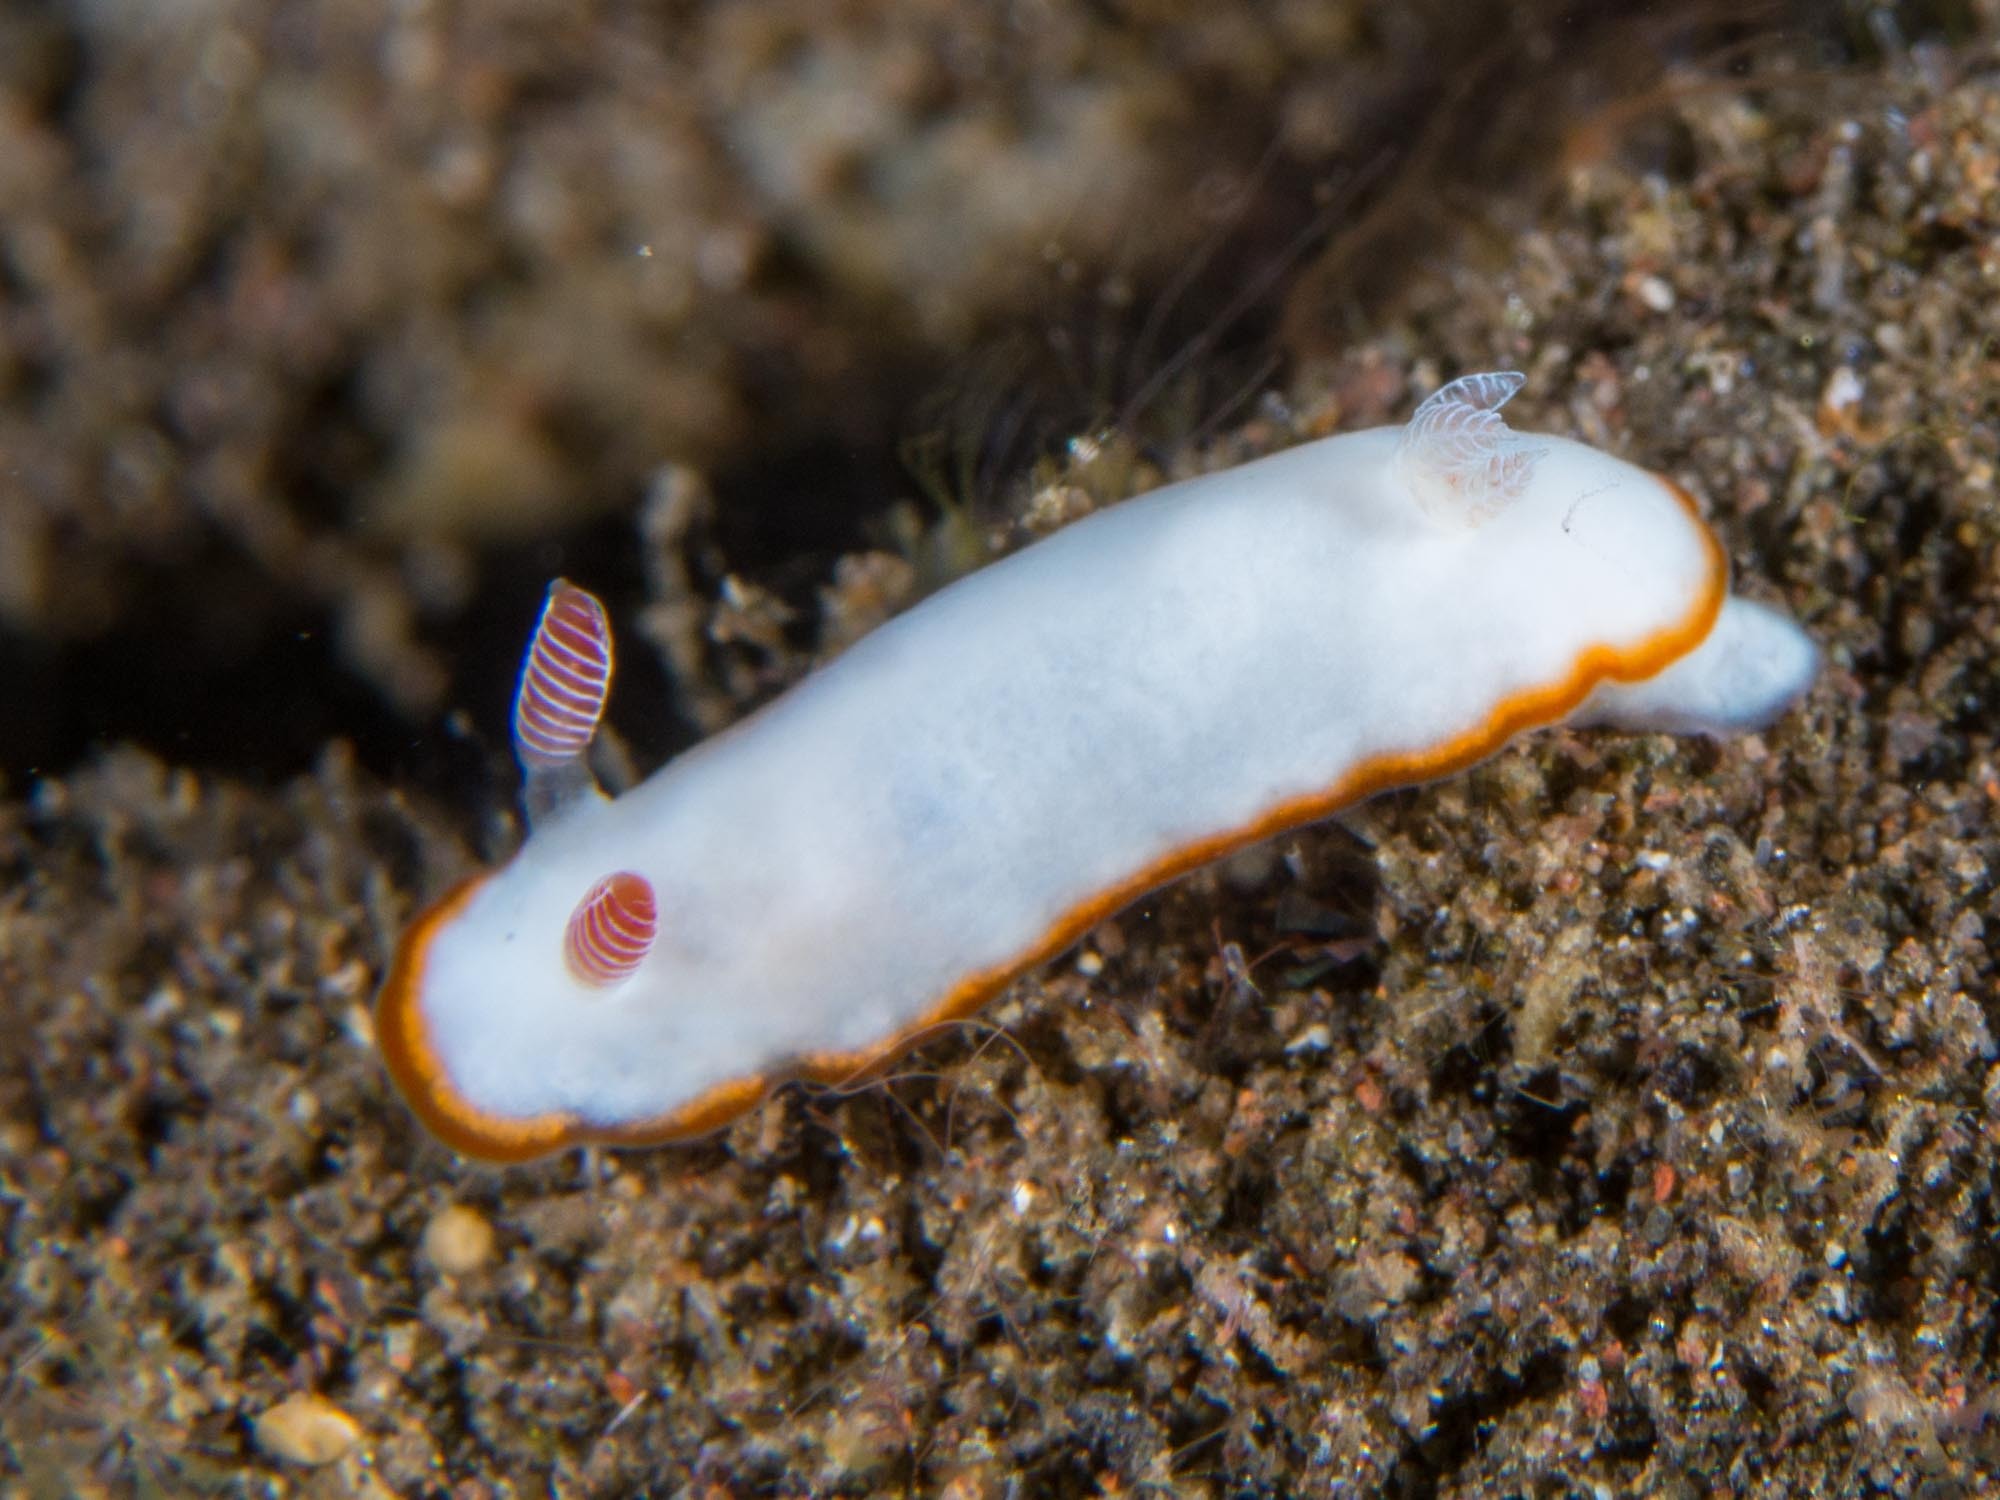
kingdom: Animalia
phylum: Mollusca
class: Gastropoda
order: Nudibranchia
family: Chromodorididae
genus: Goniobranchus
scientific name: Goniobranchus verrieri
